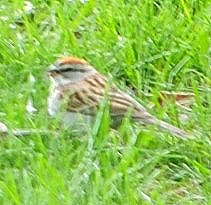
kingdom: Animalia
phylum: Chordata
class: Aves
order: Passeriformes
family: Passerellidae
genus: Spizella
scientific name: Spizella passerina
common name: Chipping sparrow
